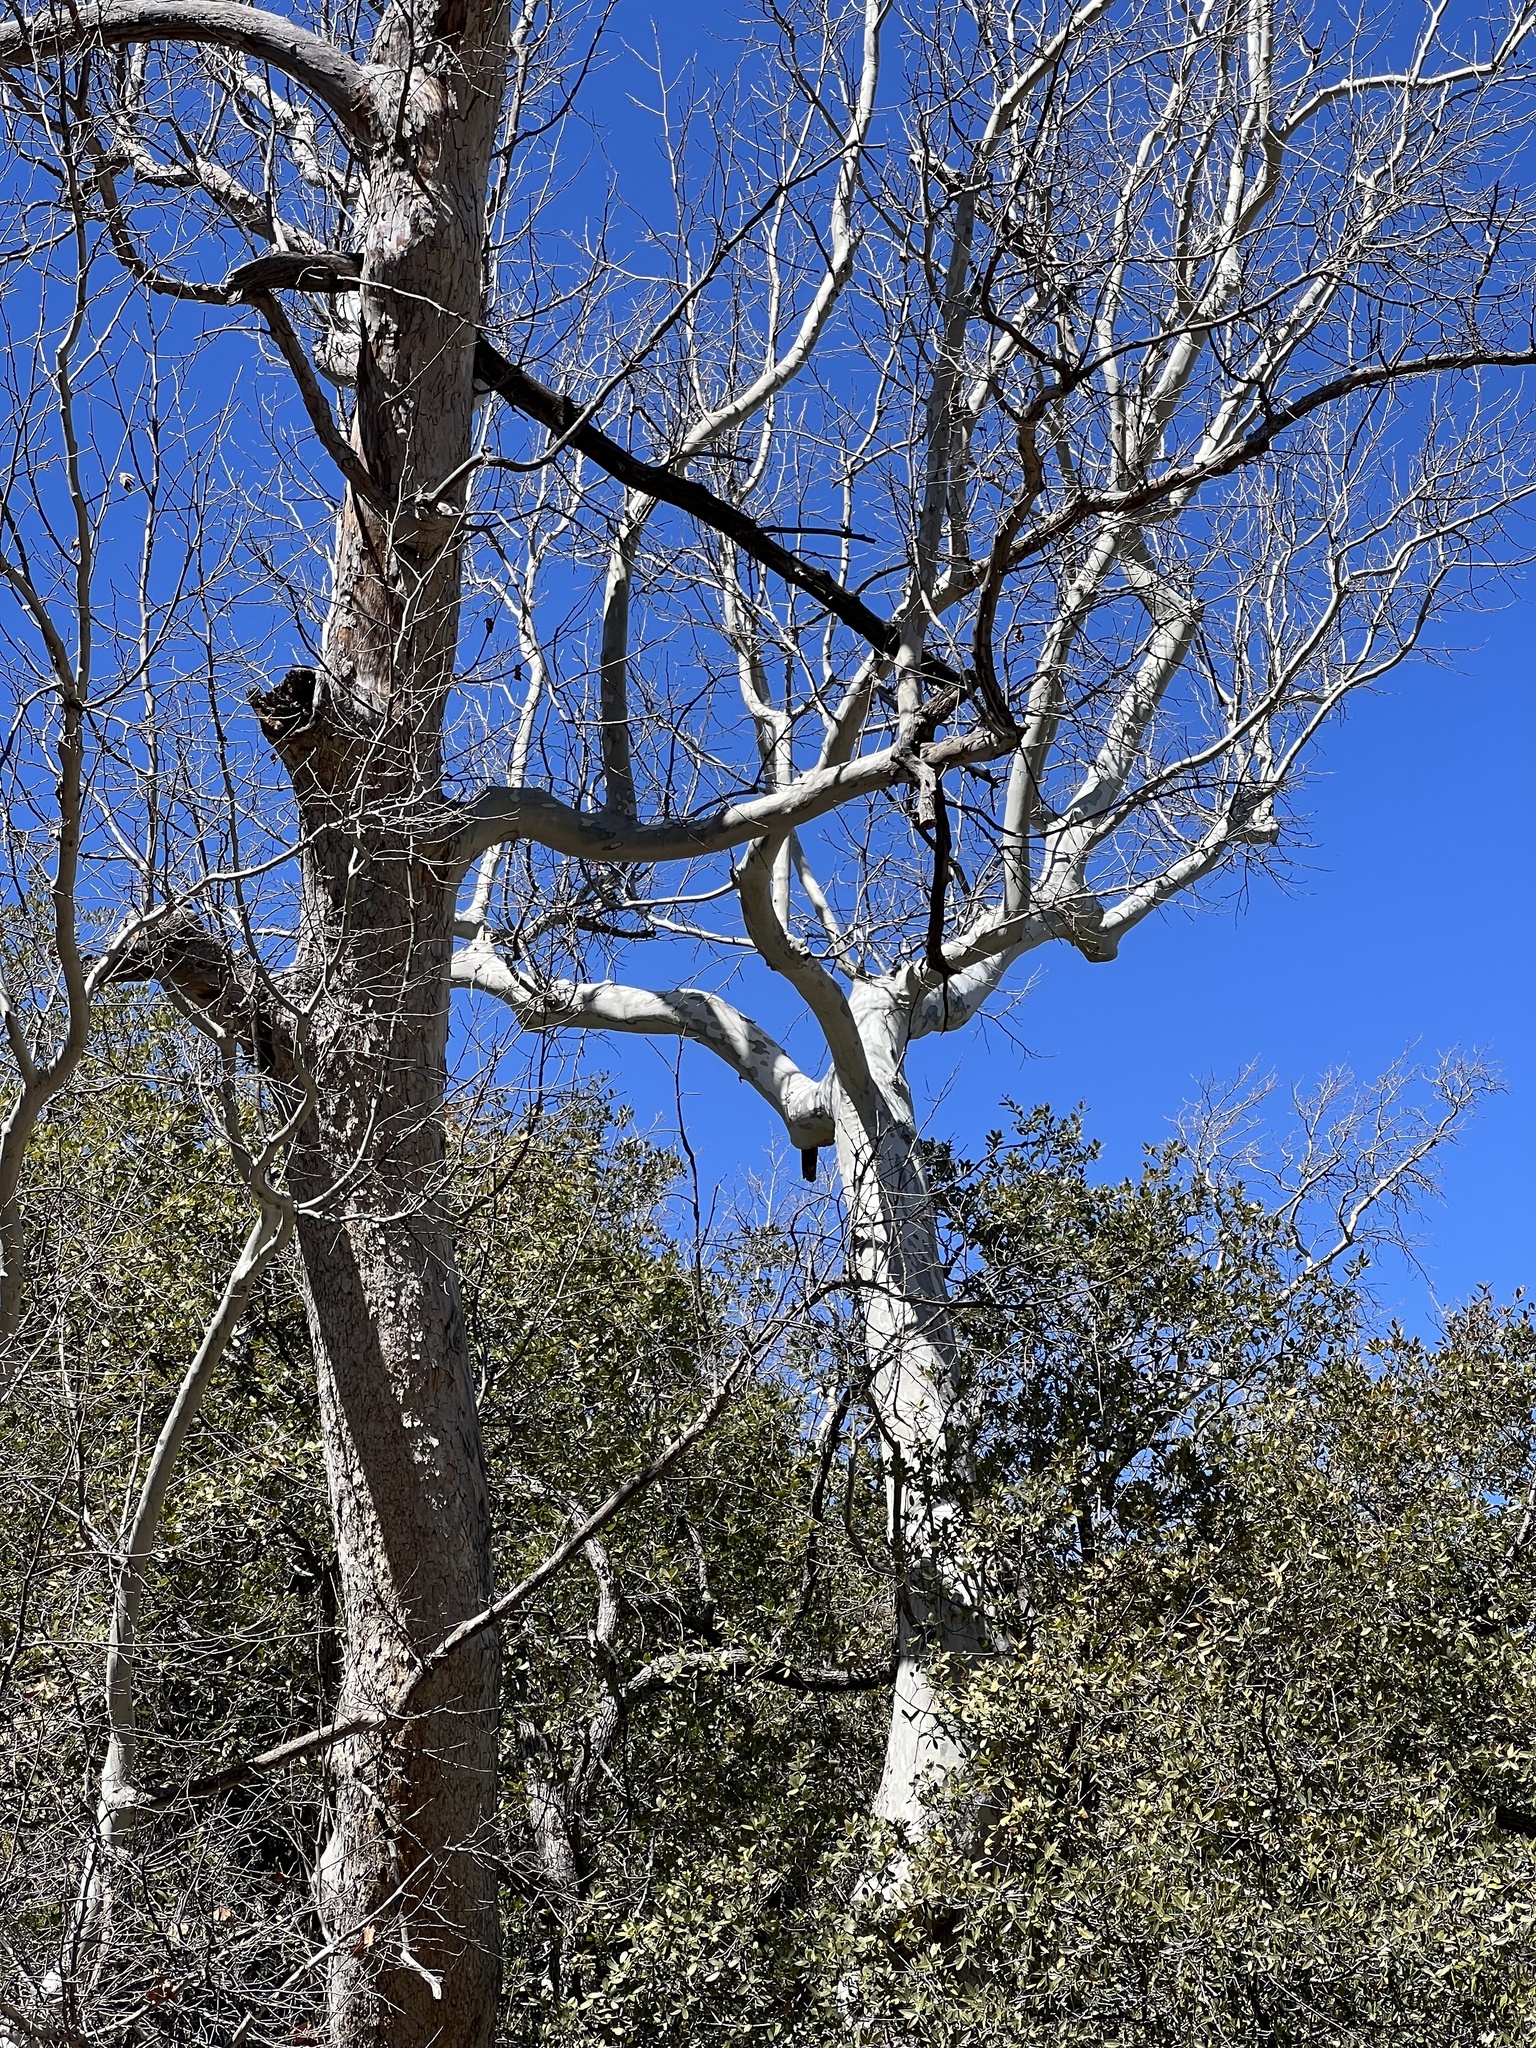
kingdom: Plantae
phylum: Tracheophyta
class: Magnoliopsida
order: Proteales
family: Platanaceae
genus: Platanus
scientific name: Platanus wrightii
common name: Arizona sycamore
